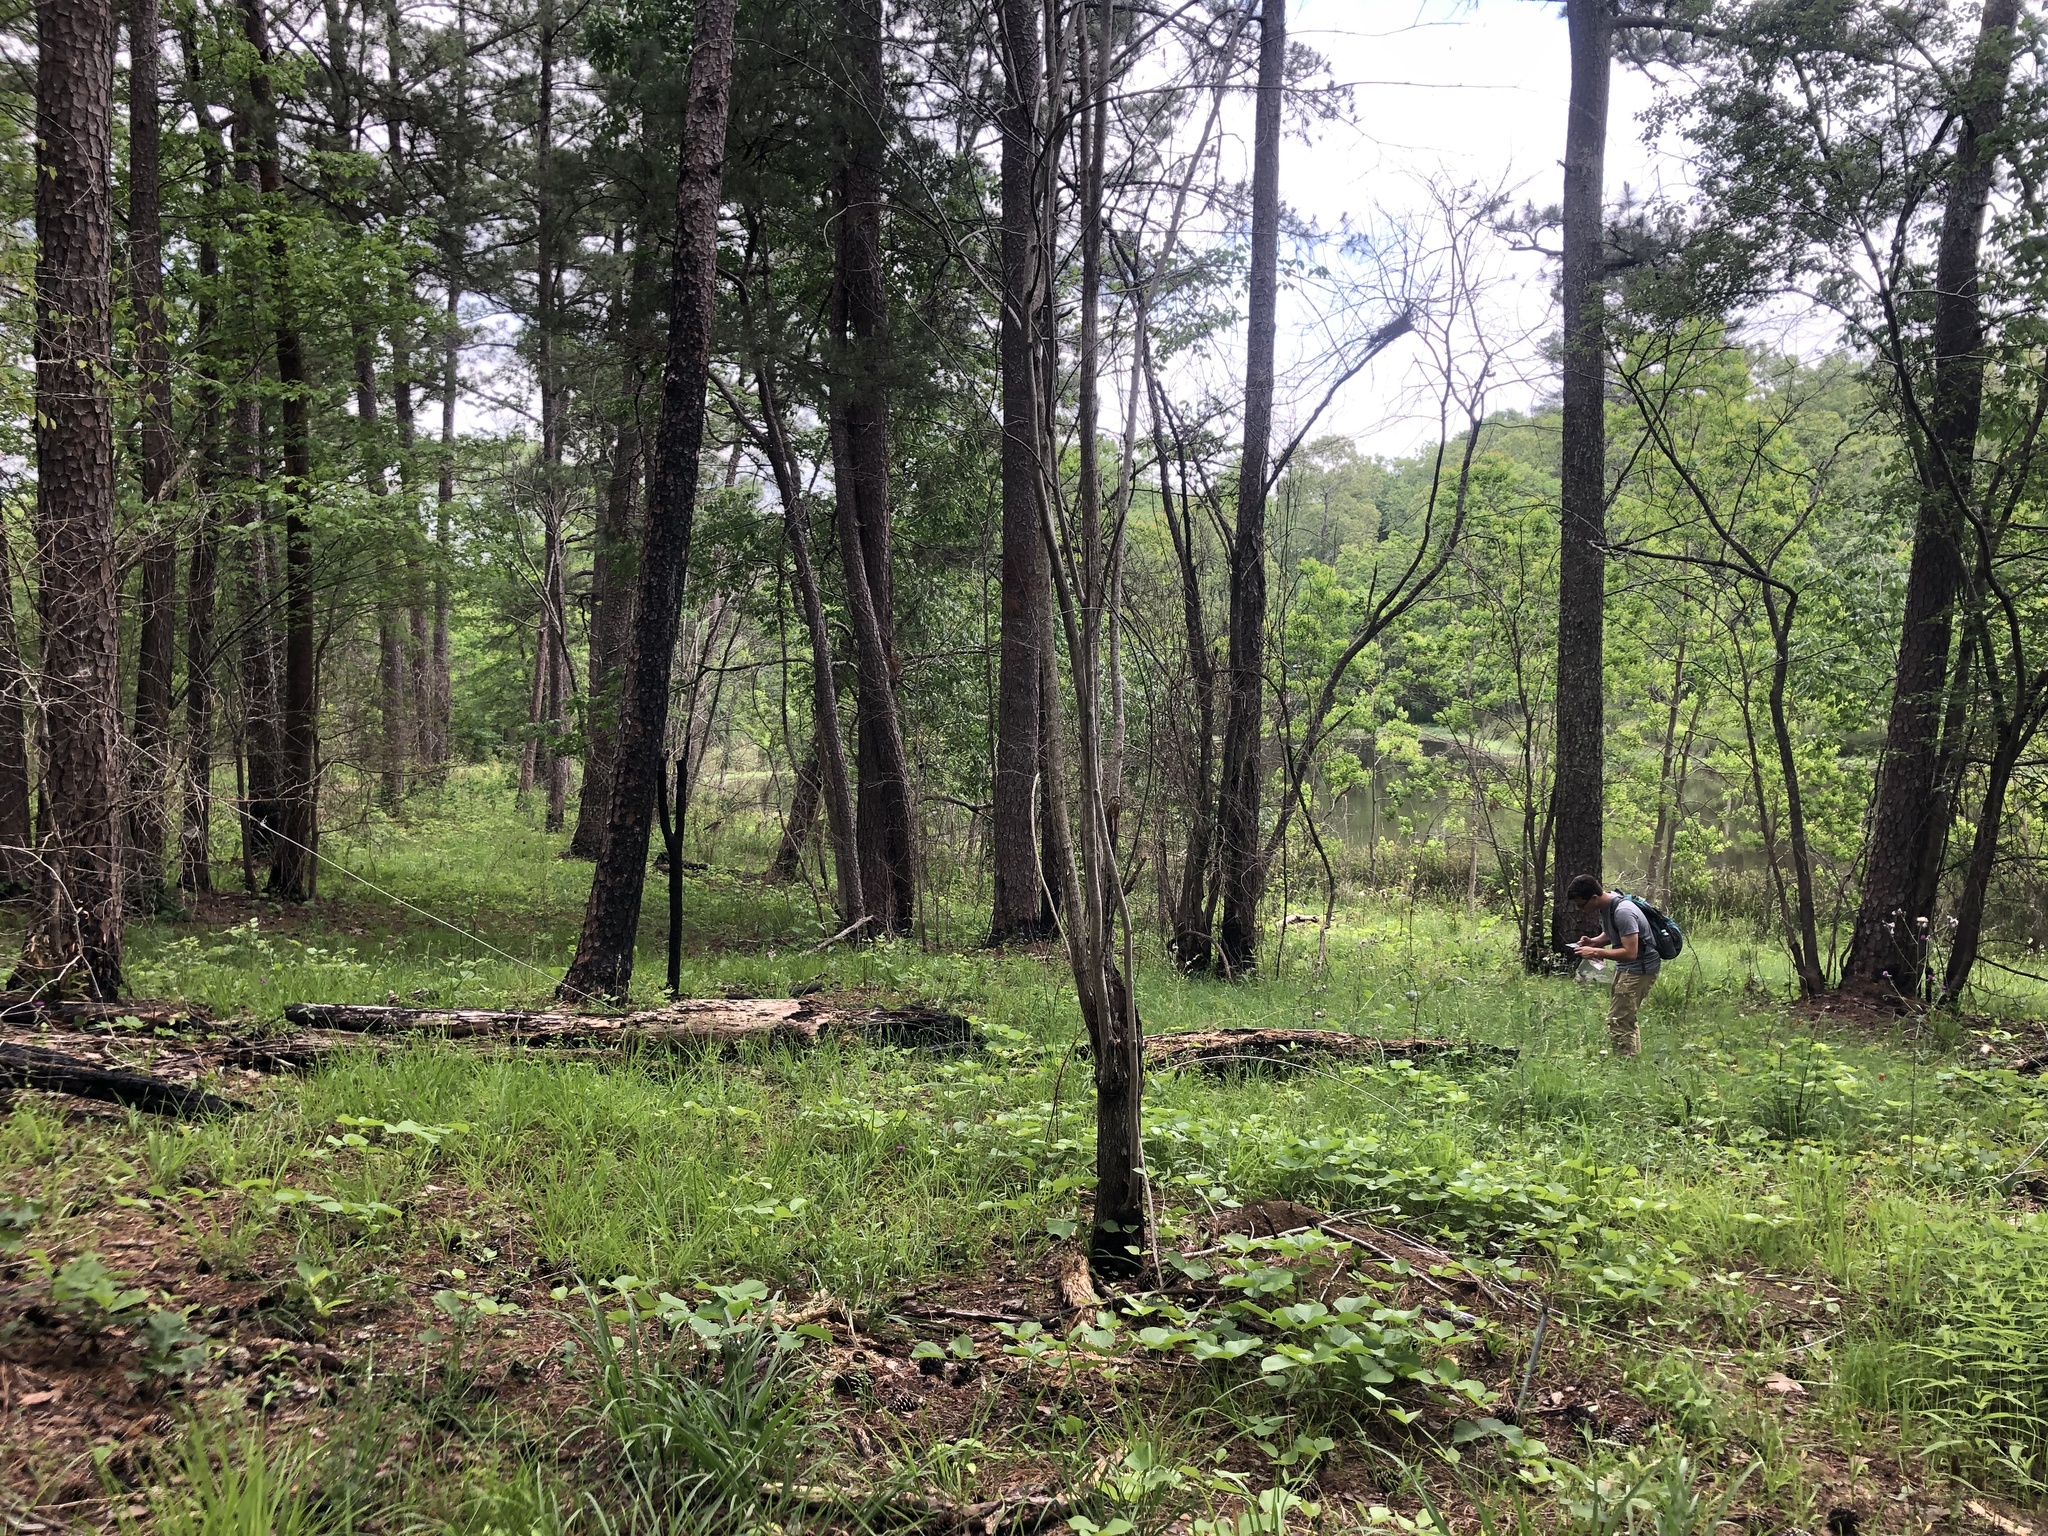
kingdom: Plantae
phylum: Tracheophyta
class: Magnoliopsida
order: Fabales
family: Fabaceae
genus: Erythrina
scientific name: Erythrina herbacea
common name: Coral-bean
